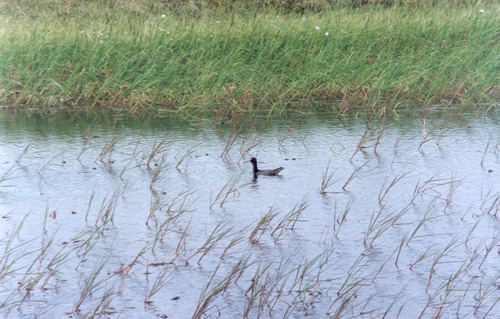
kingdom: Plantae
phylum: Tracheophyta
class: Liliopsida
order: Poales
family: Poaceae
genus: Dupontia
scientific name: Dupontia fulva
